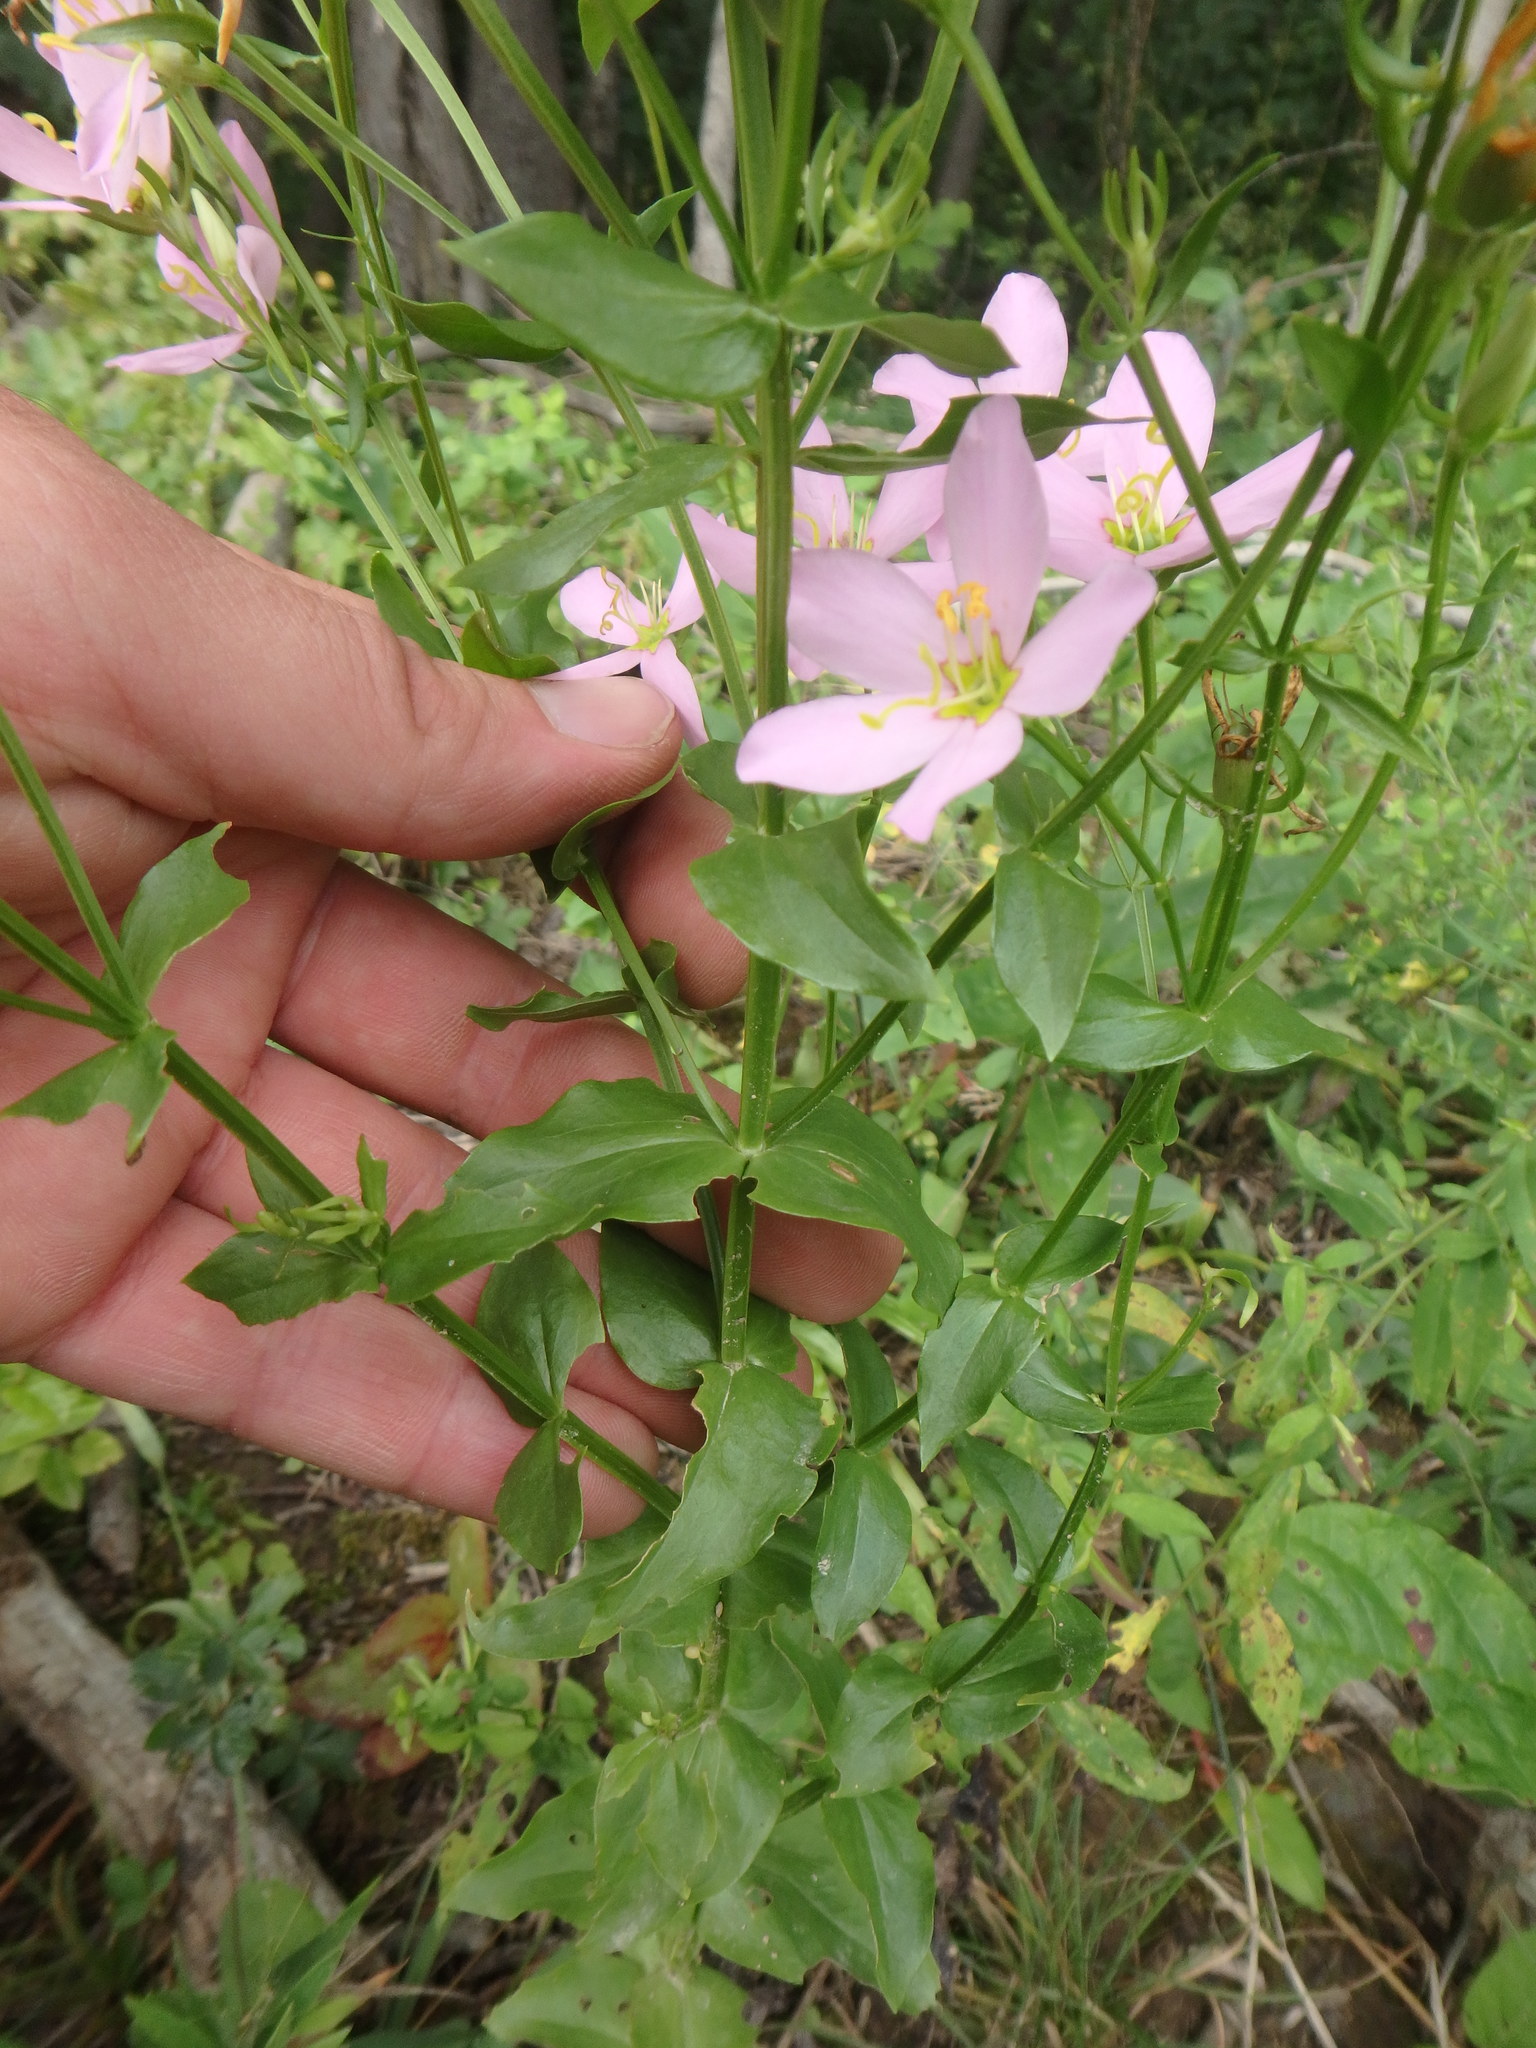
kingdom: Plantae
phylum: Tracheophyta
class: Magnoliopsida
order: Gentianales
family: Gentianaceae
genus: Sabatia
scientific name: Sabatia angularis
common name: Rose-pink
